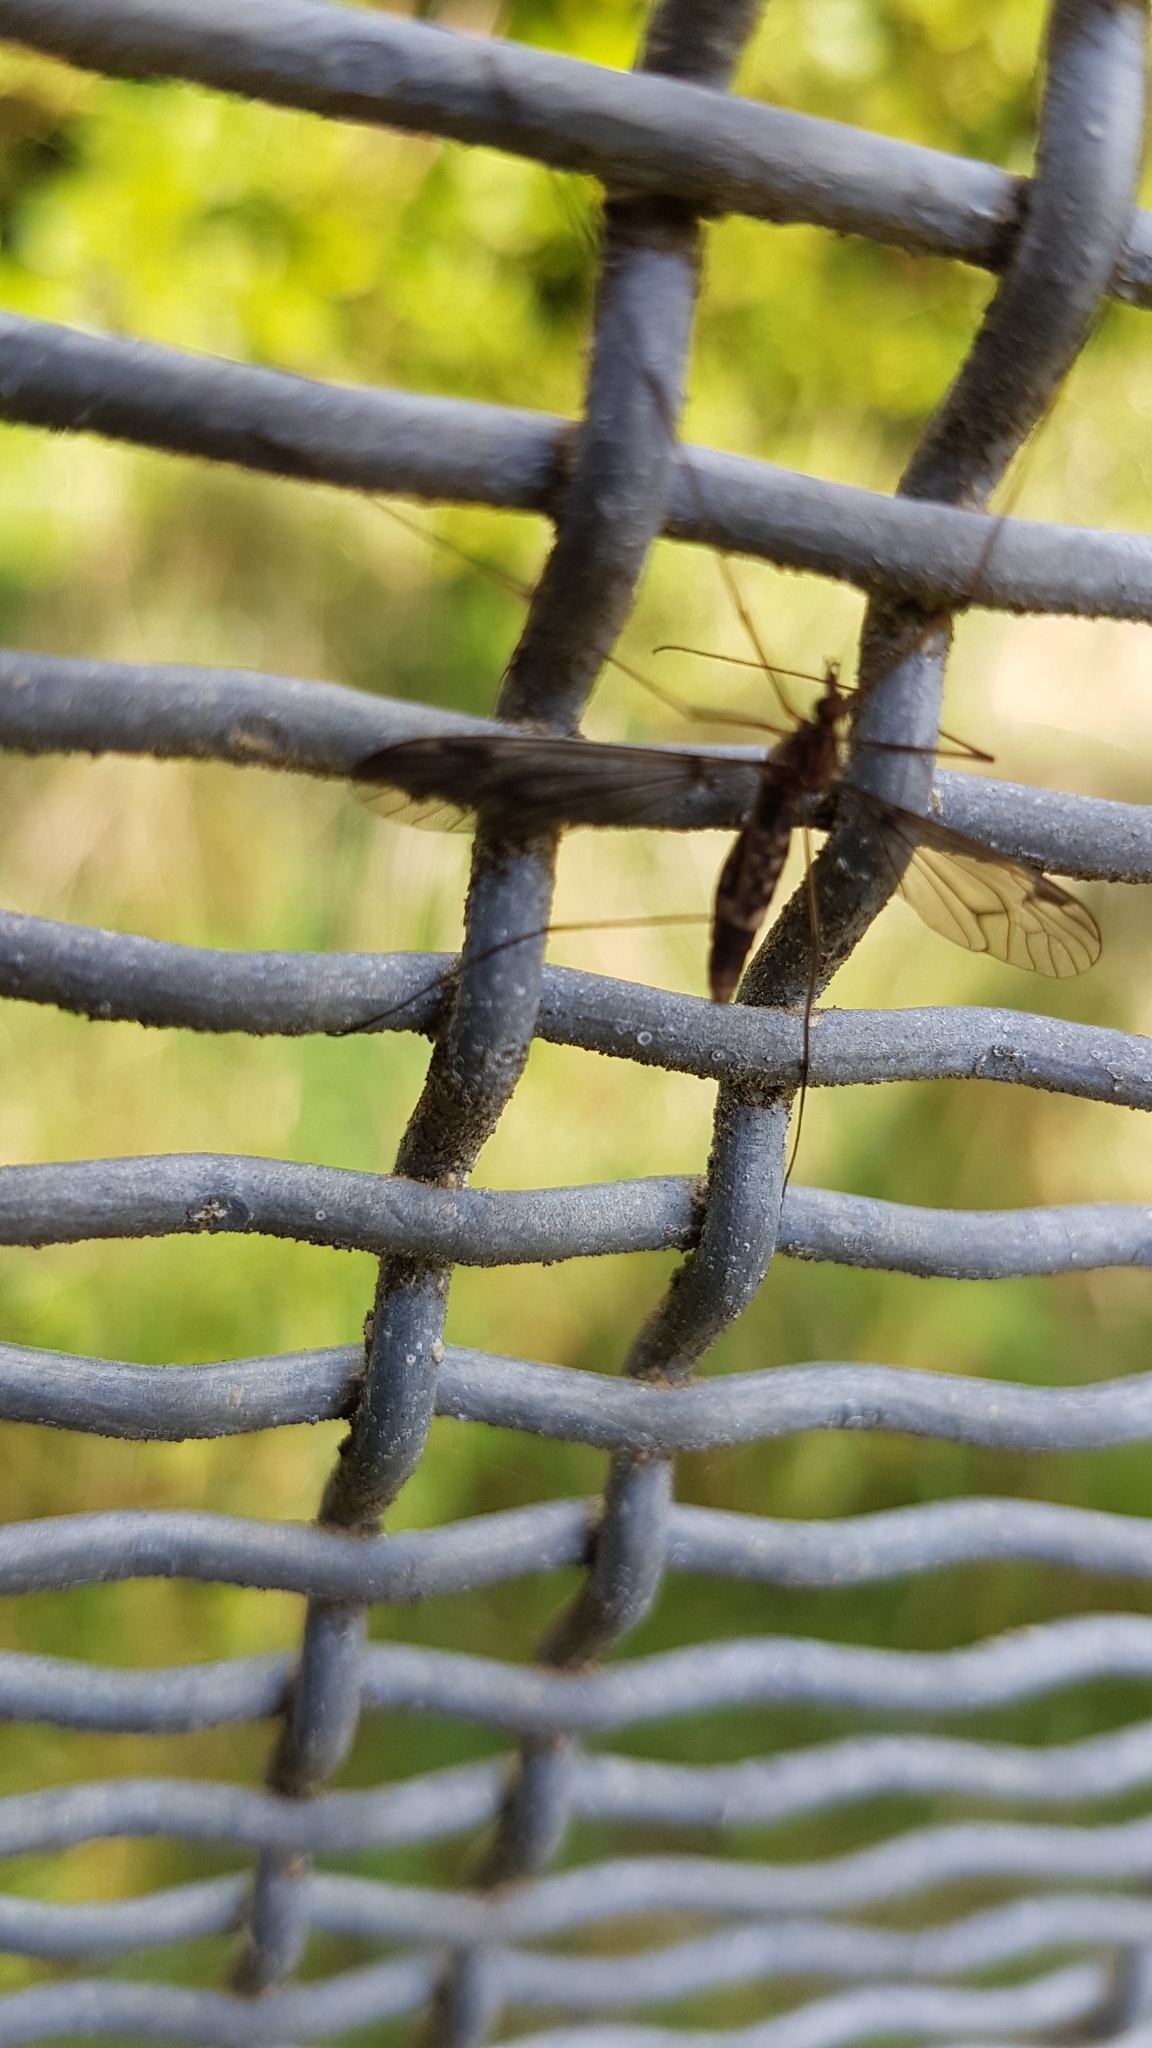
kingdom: Animalia
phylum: Arthropoda
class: Insecta
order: Diptera
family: Tipulidae
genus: Leptotarsus
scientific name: Leptotarsus cubitalis
